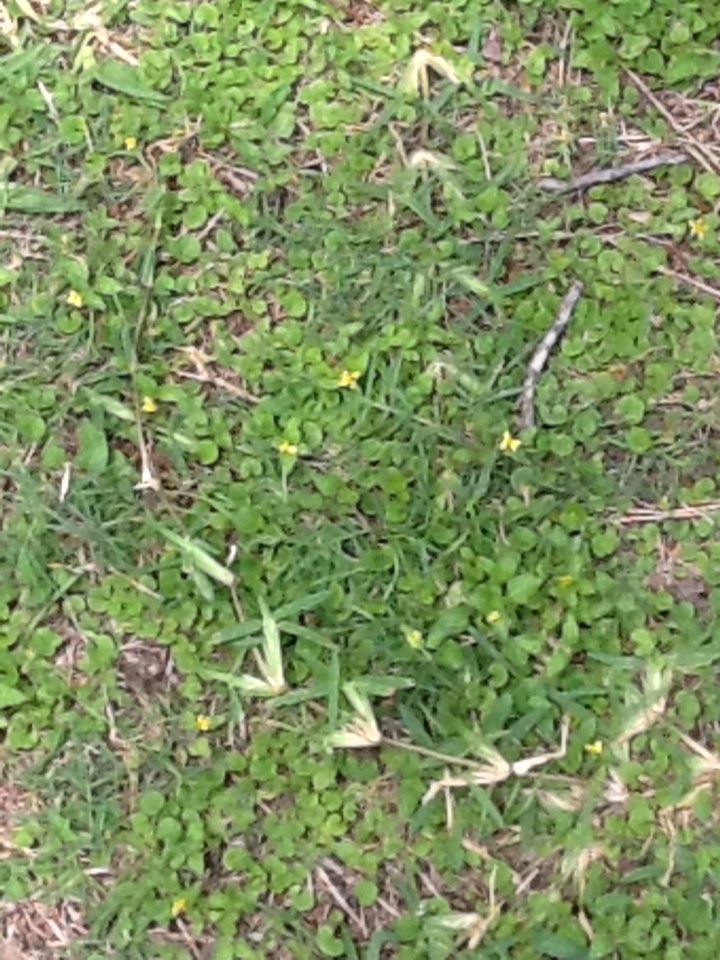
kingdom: Plantae
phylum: Tracheophyta
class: Magnoliopsida
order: Asterales
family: Asteraceae
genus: Calyptocarpus
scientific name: Calyptocarpus vialis
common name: Straggler daisy
